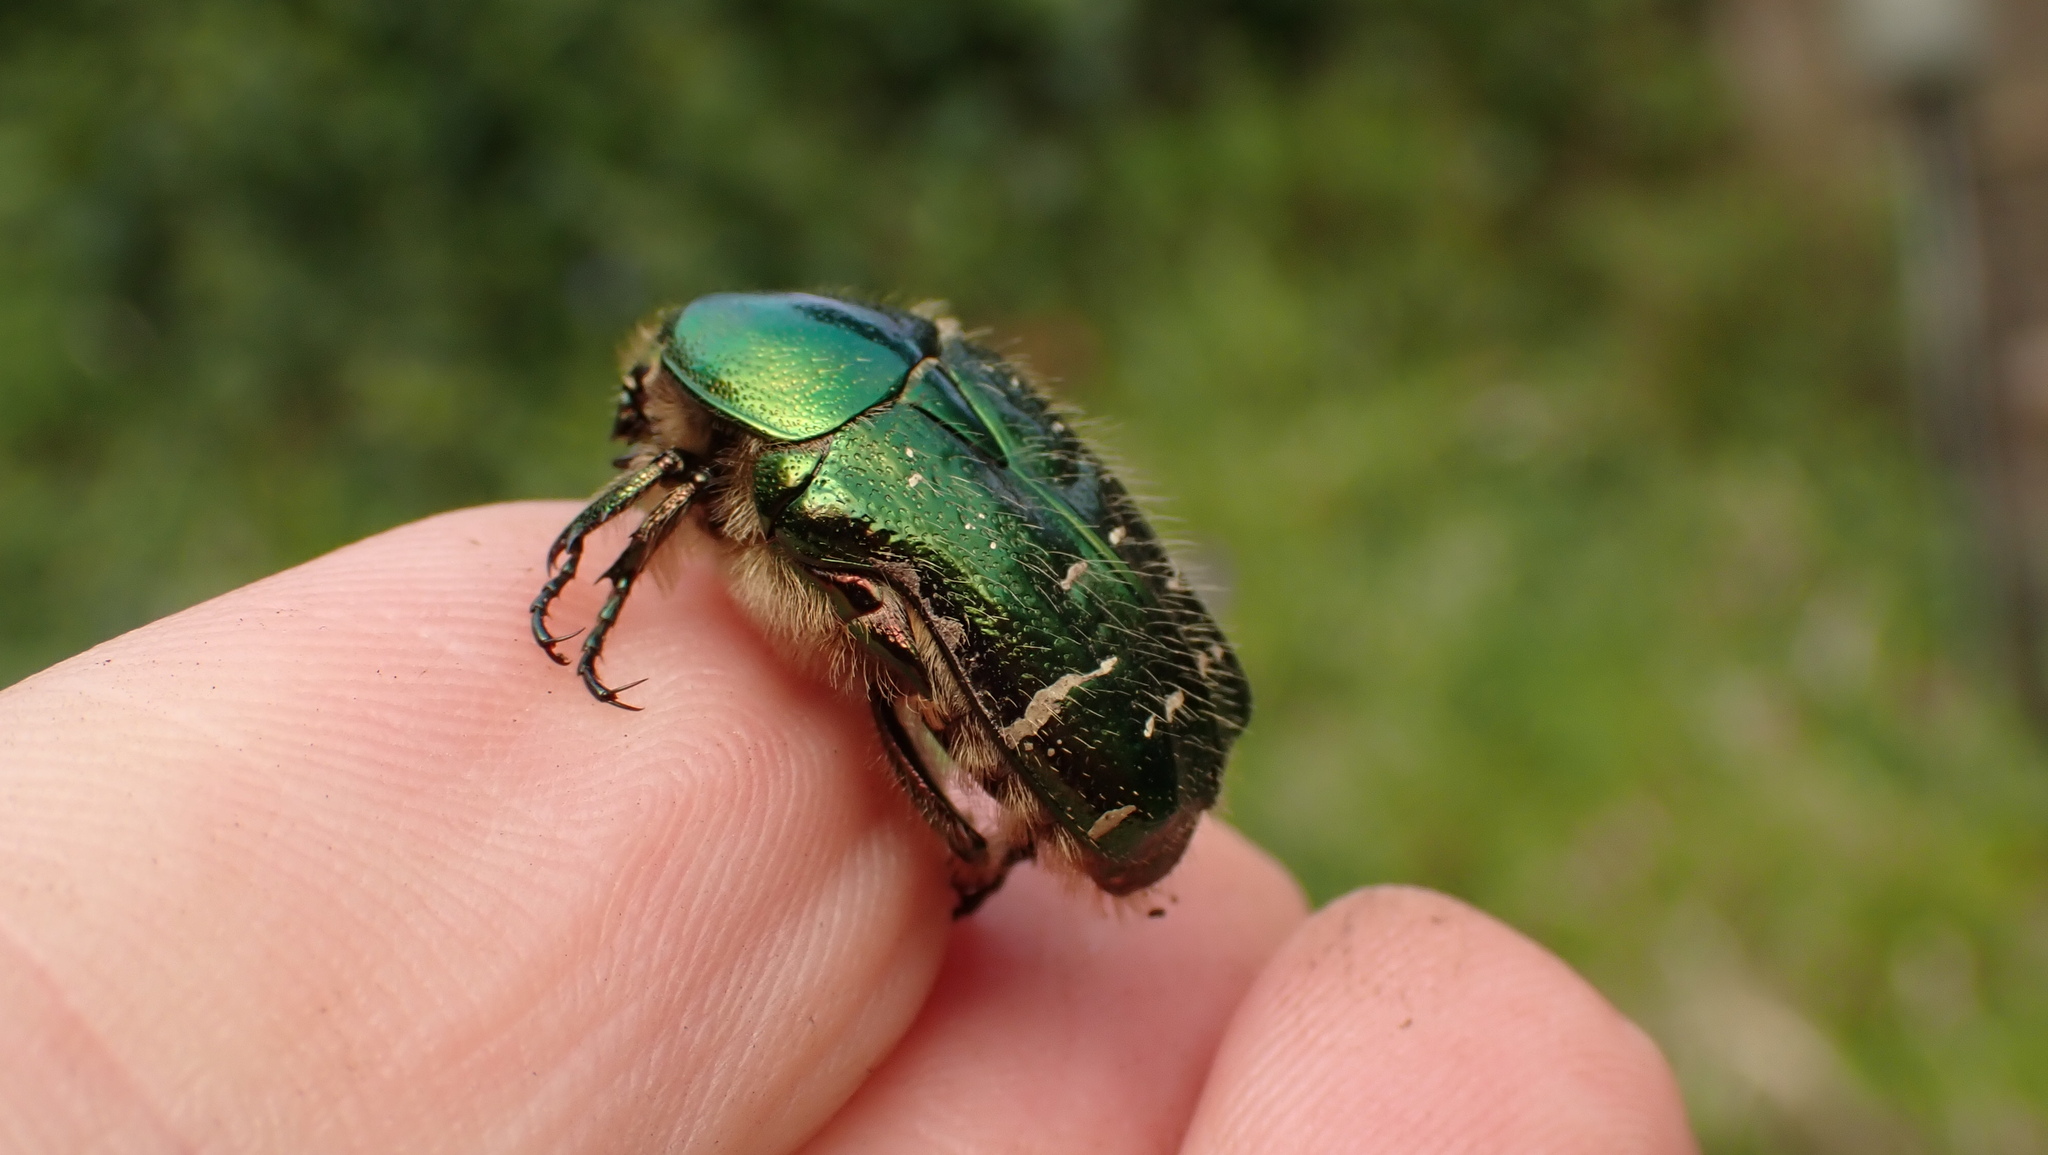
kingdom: Animalia
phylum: Arthropoda
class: Insecta
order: Coleoptera
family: Scarabaeidae
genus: Cetonia
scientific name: Cetonia aurata
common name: Rose chafer
